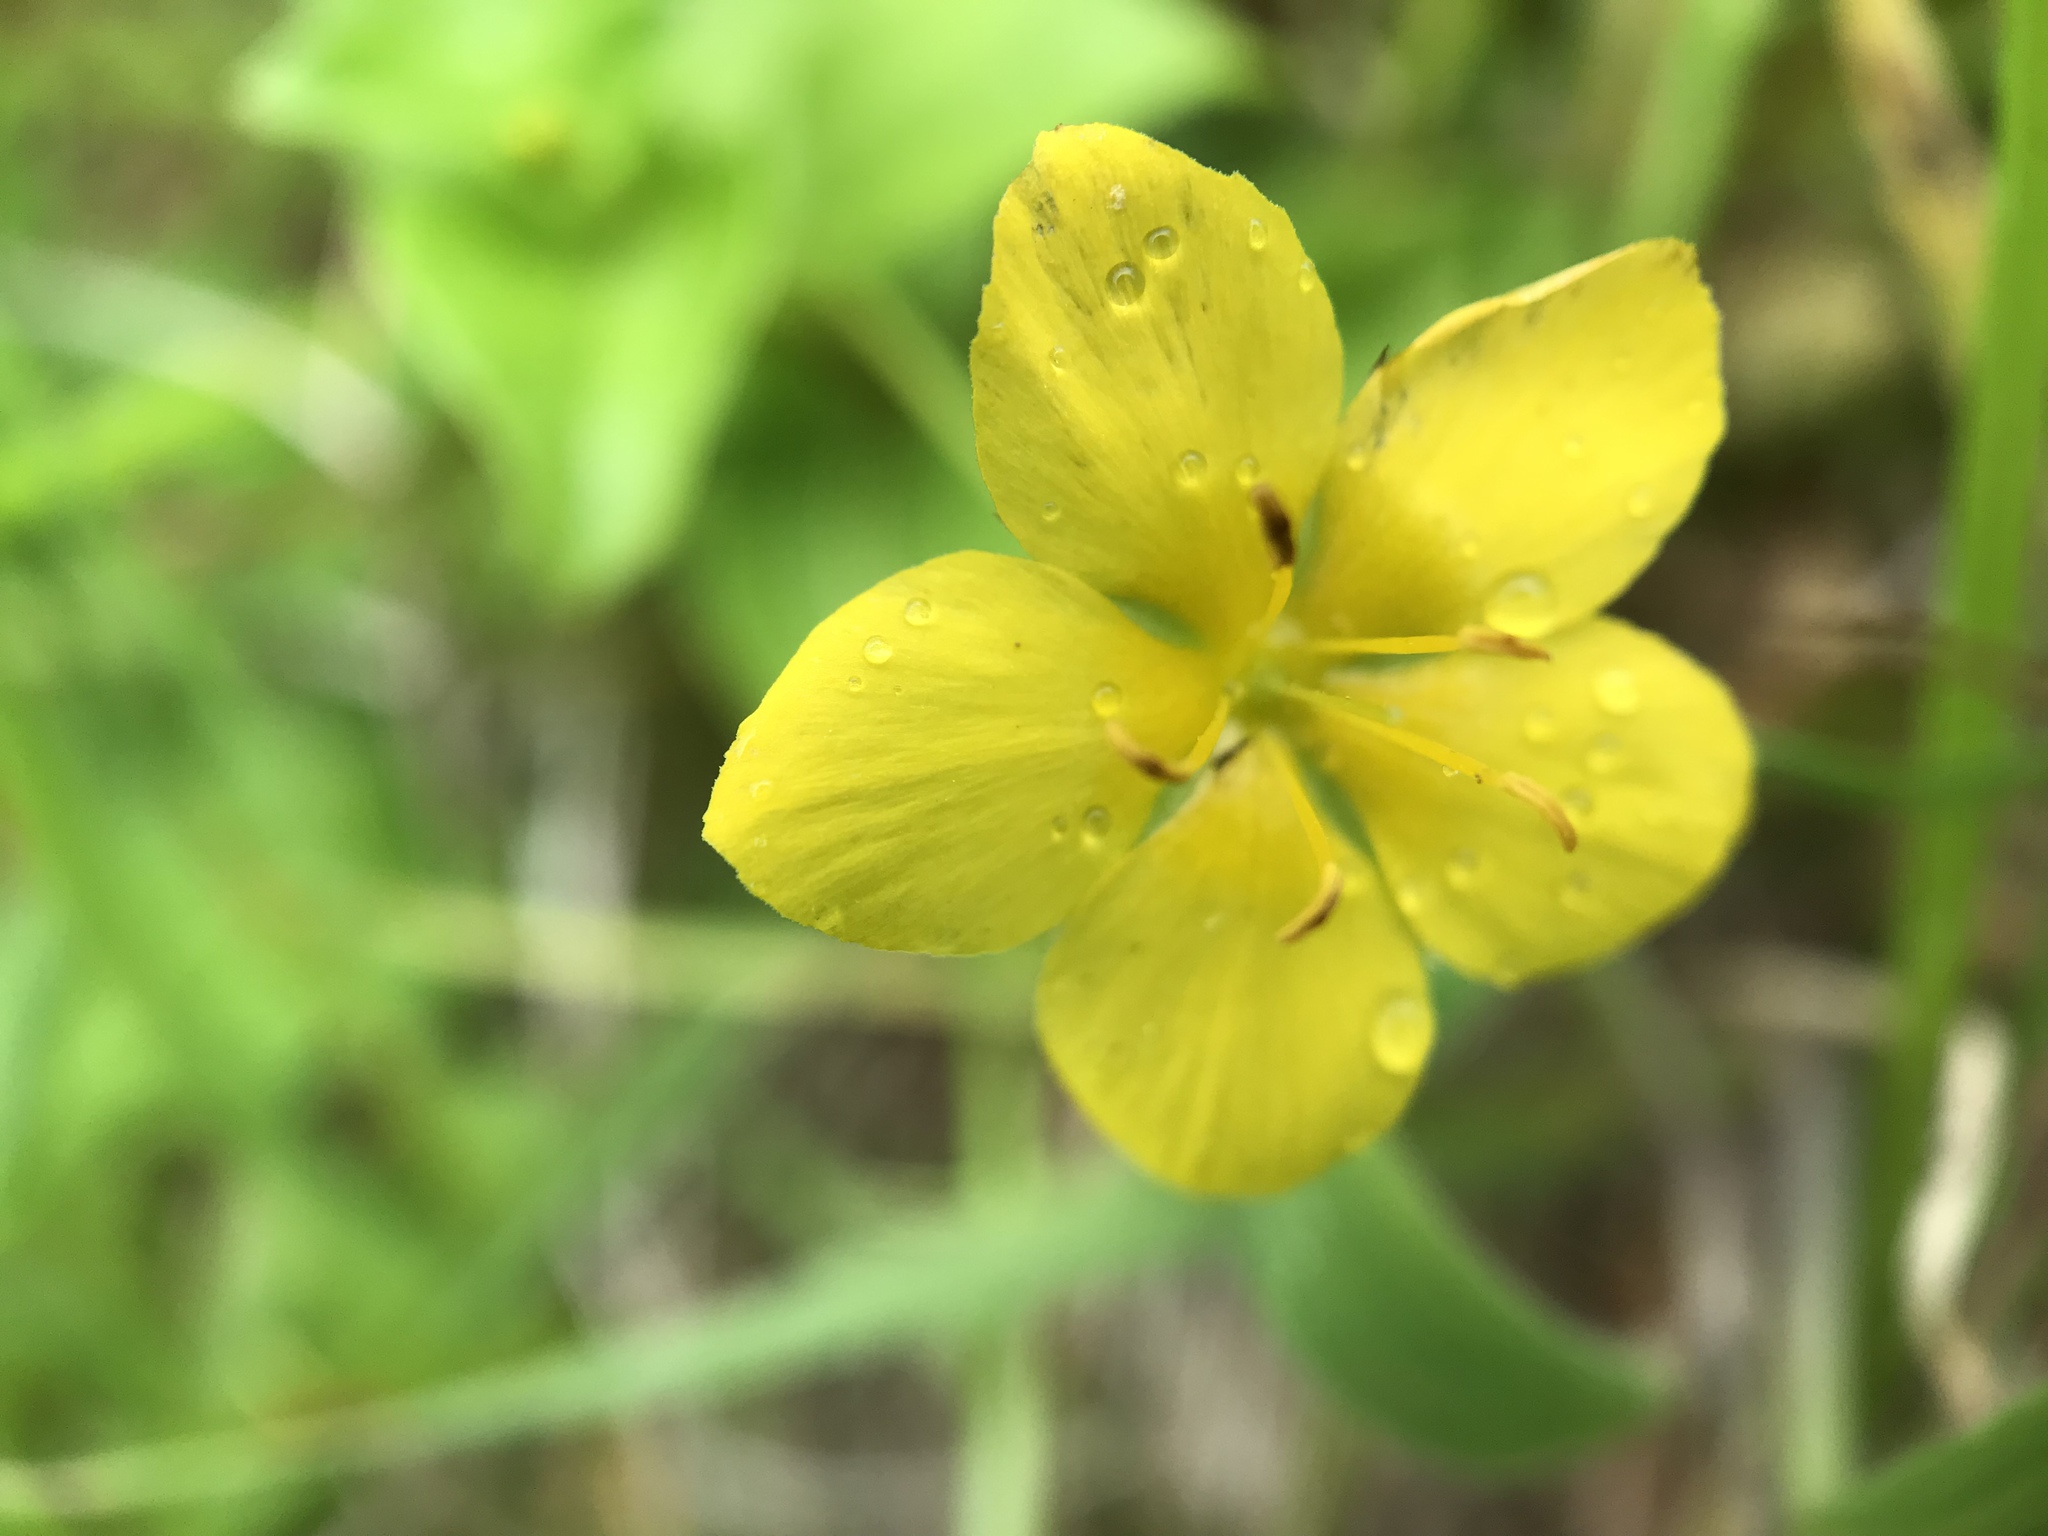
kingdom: Plantae
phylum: Tracheophyta
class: Magnoliopsida
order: Ericales
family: Primulaceae
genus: Lysimachia
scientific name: Lysimachia nemorum
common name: Yellow pimpernel
